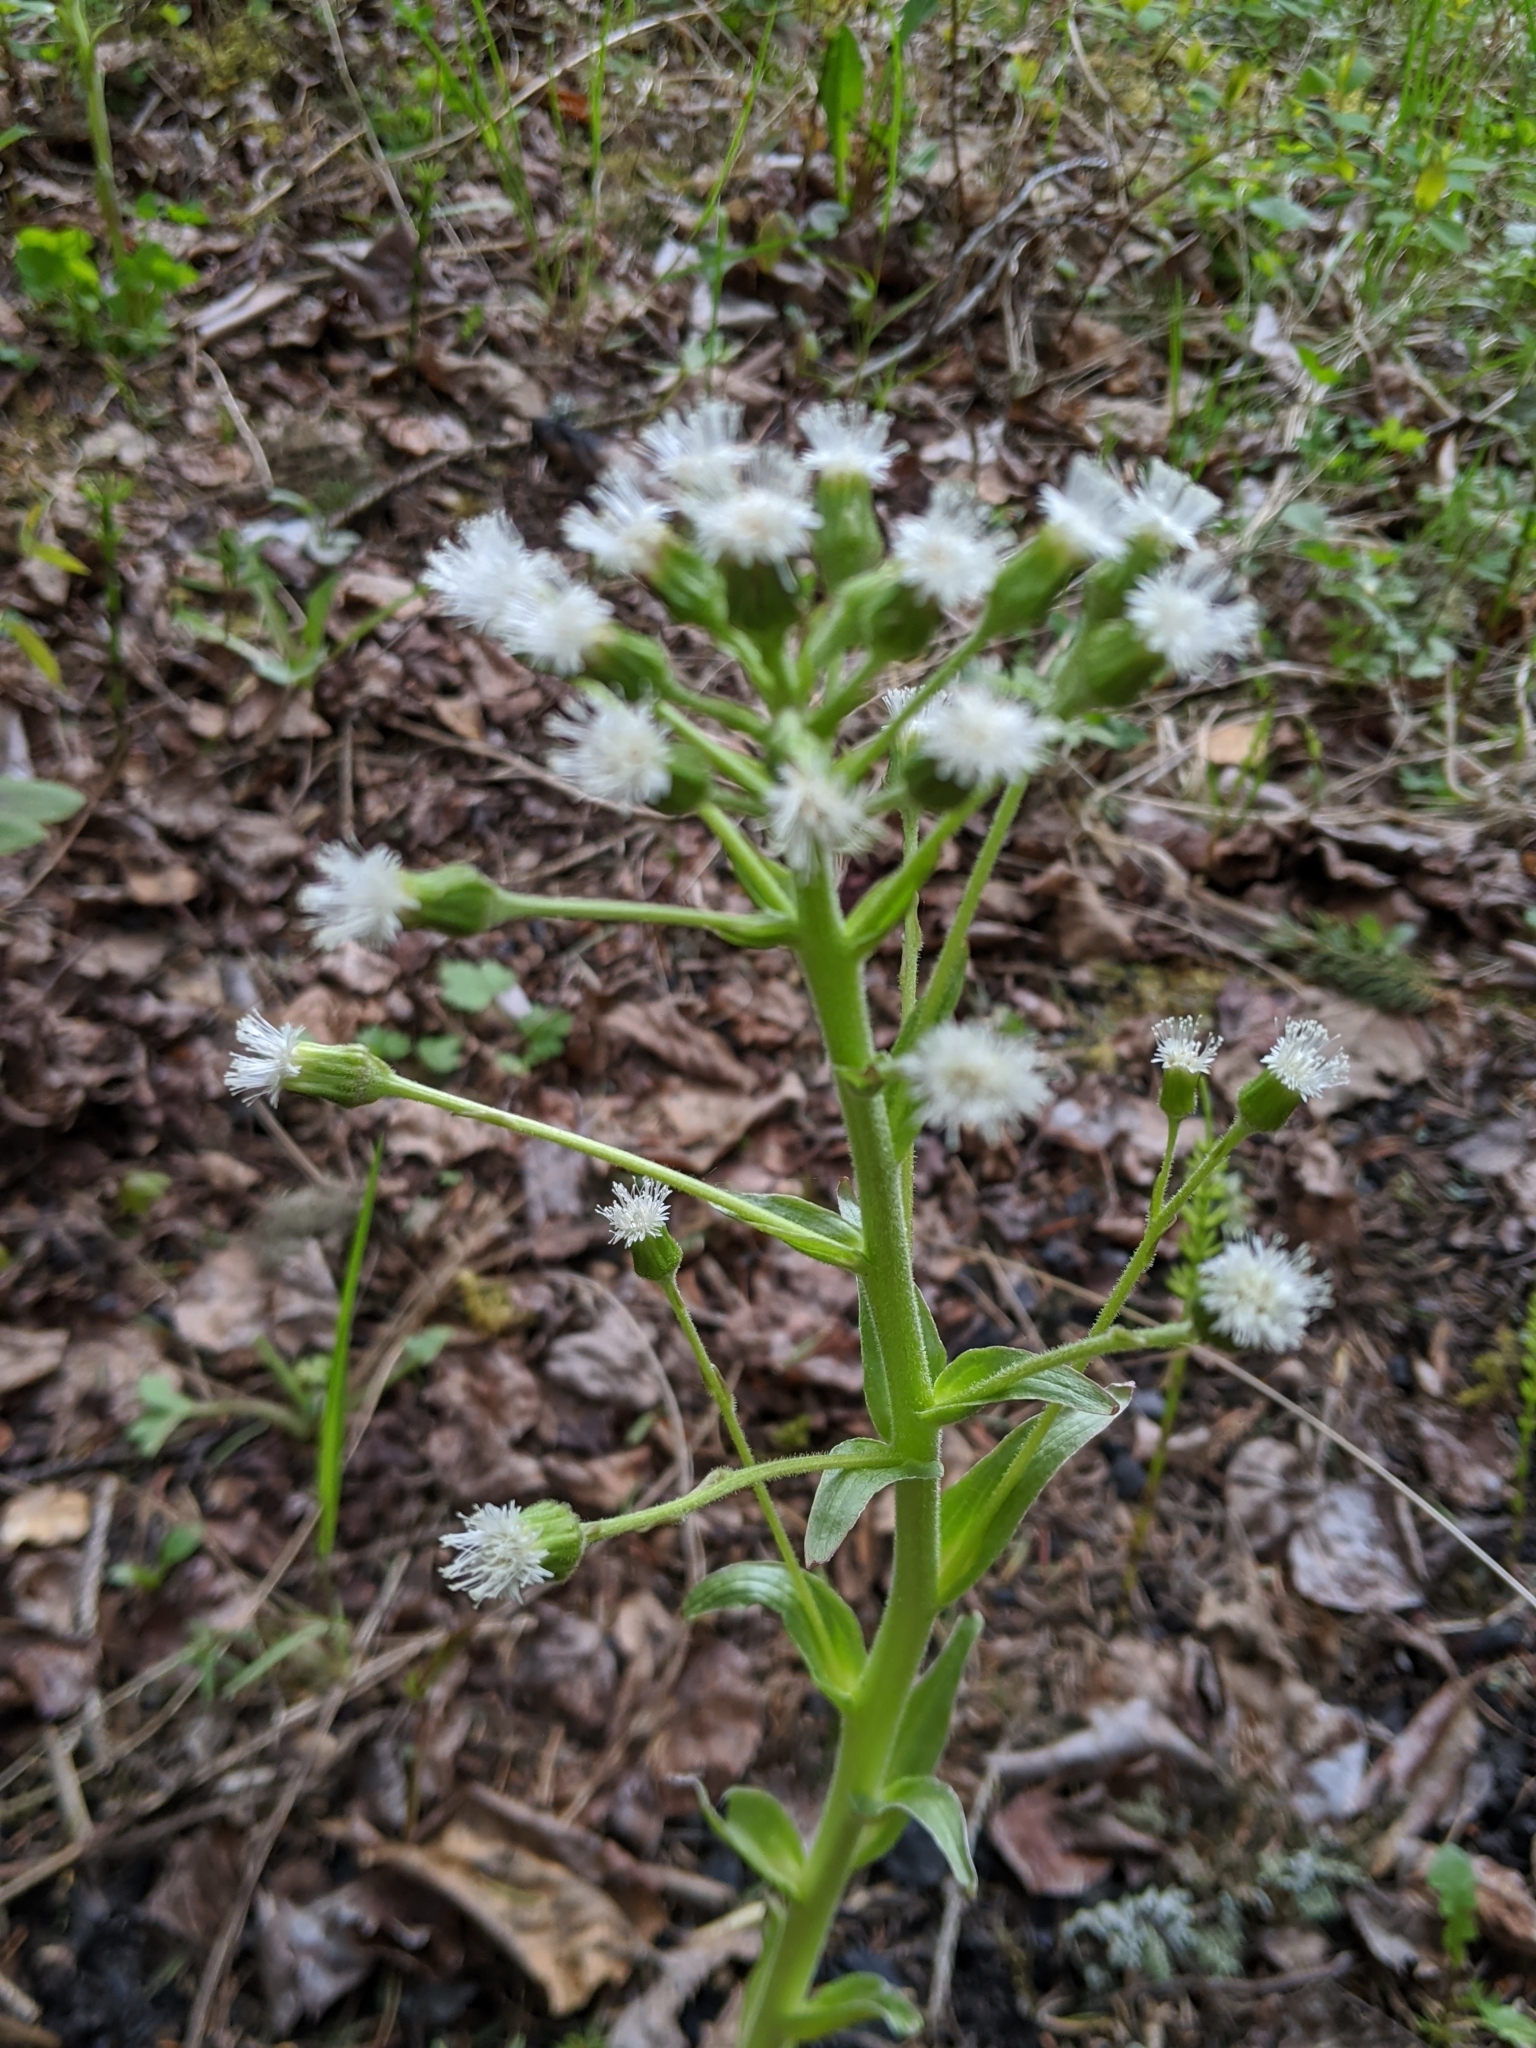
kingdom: Plantae
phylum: Tracheophyta
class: Magnoliopsida
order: Asterales
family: Asteraceae
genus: Petasites
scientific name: Petasites frigidus
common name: Arctic butterbur
